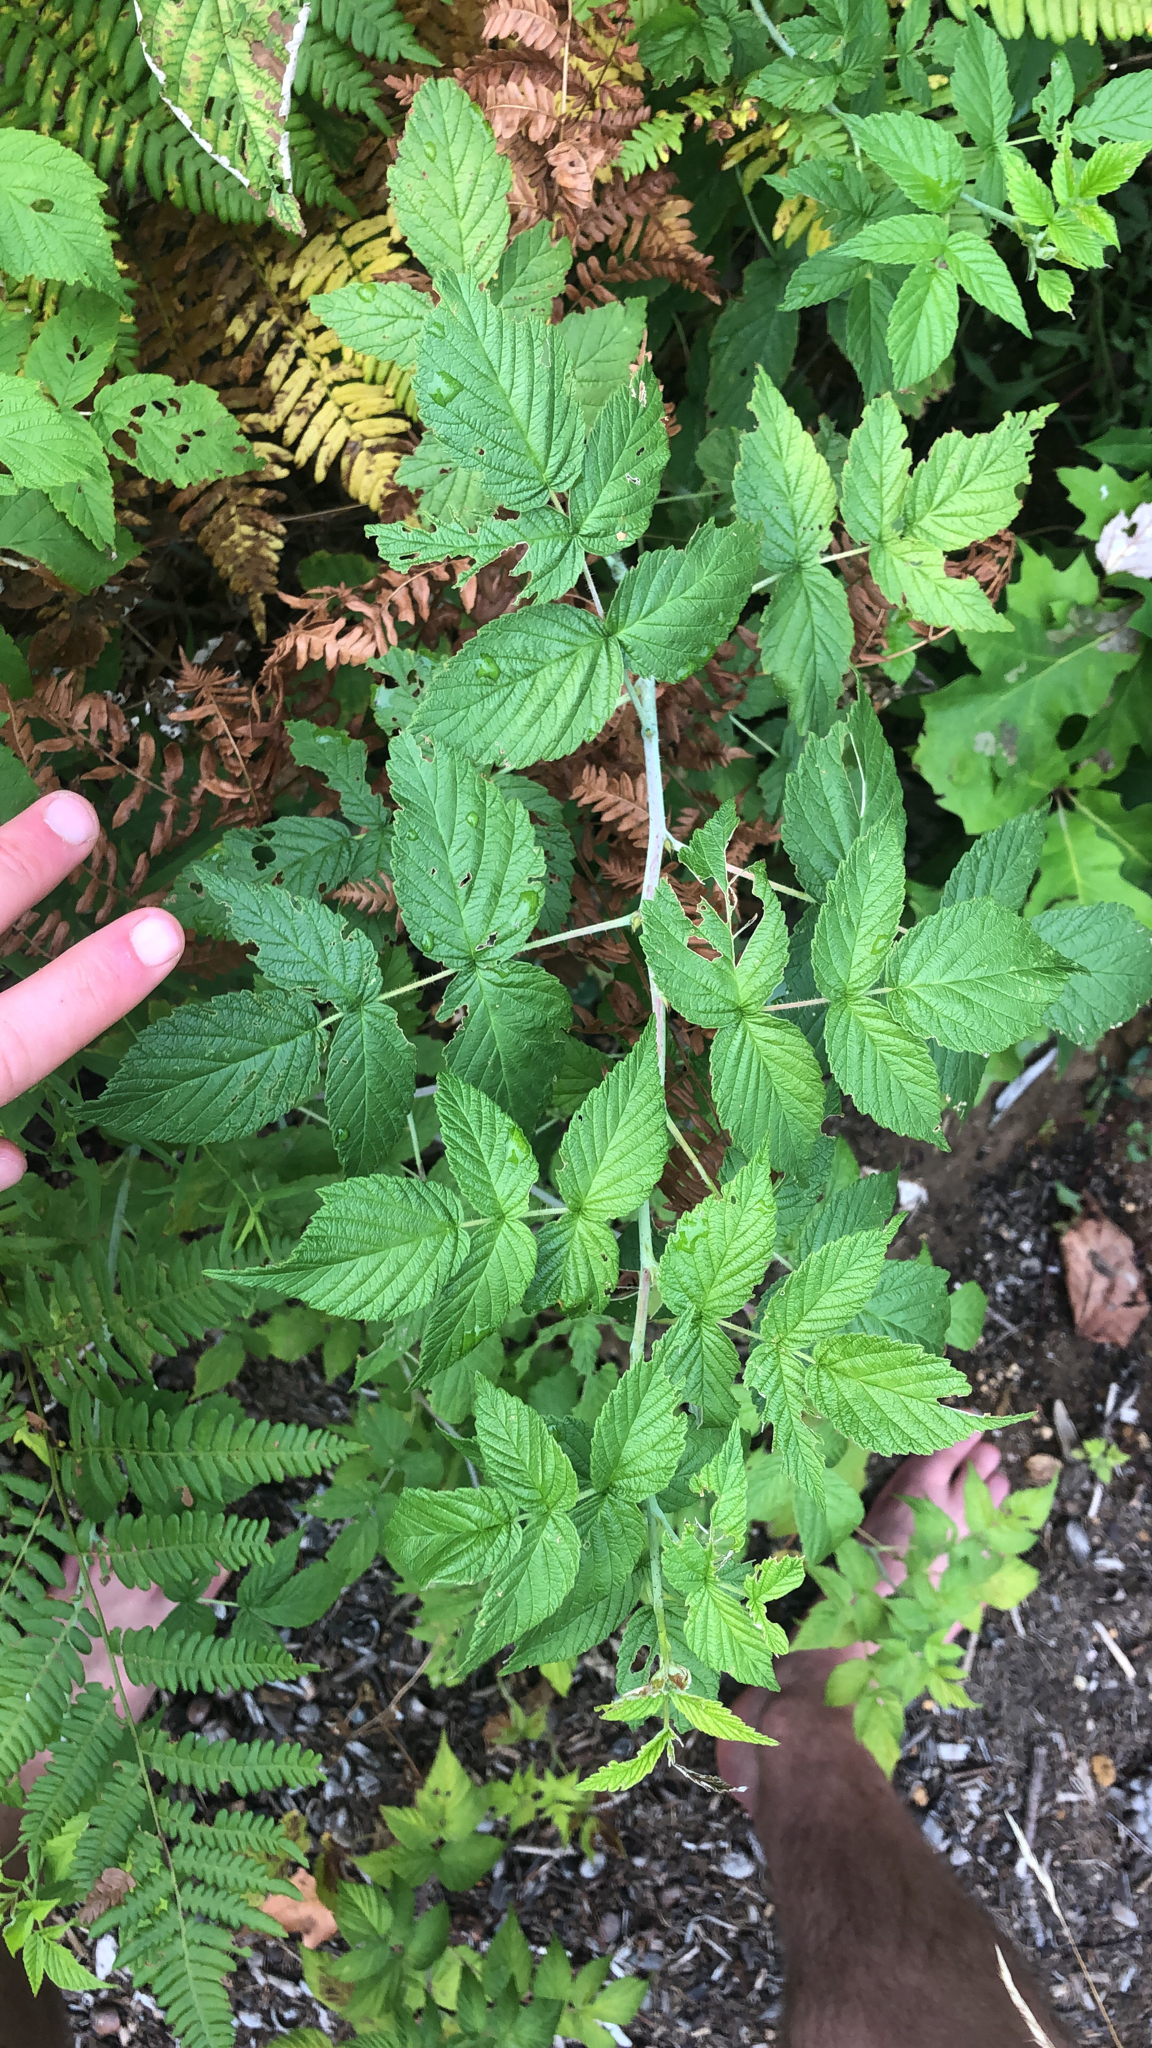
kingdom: Plantae
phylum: Tracheophyta
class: Magnoliopsida
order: Rosales
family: Rosaceae
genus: Rubus
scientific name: Rubus idaeus
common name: Raspberry
